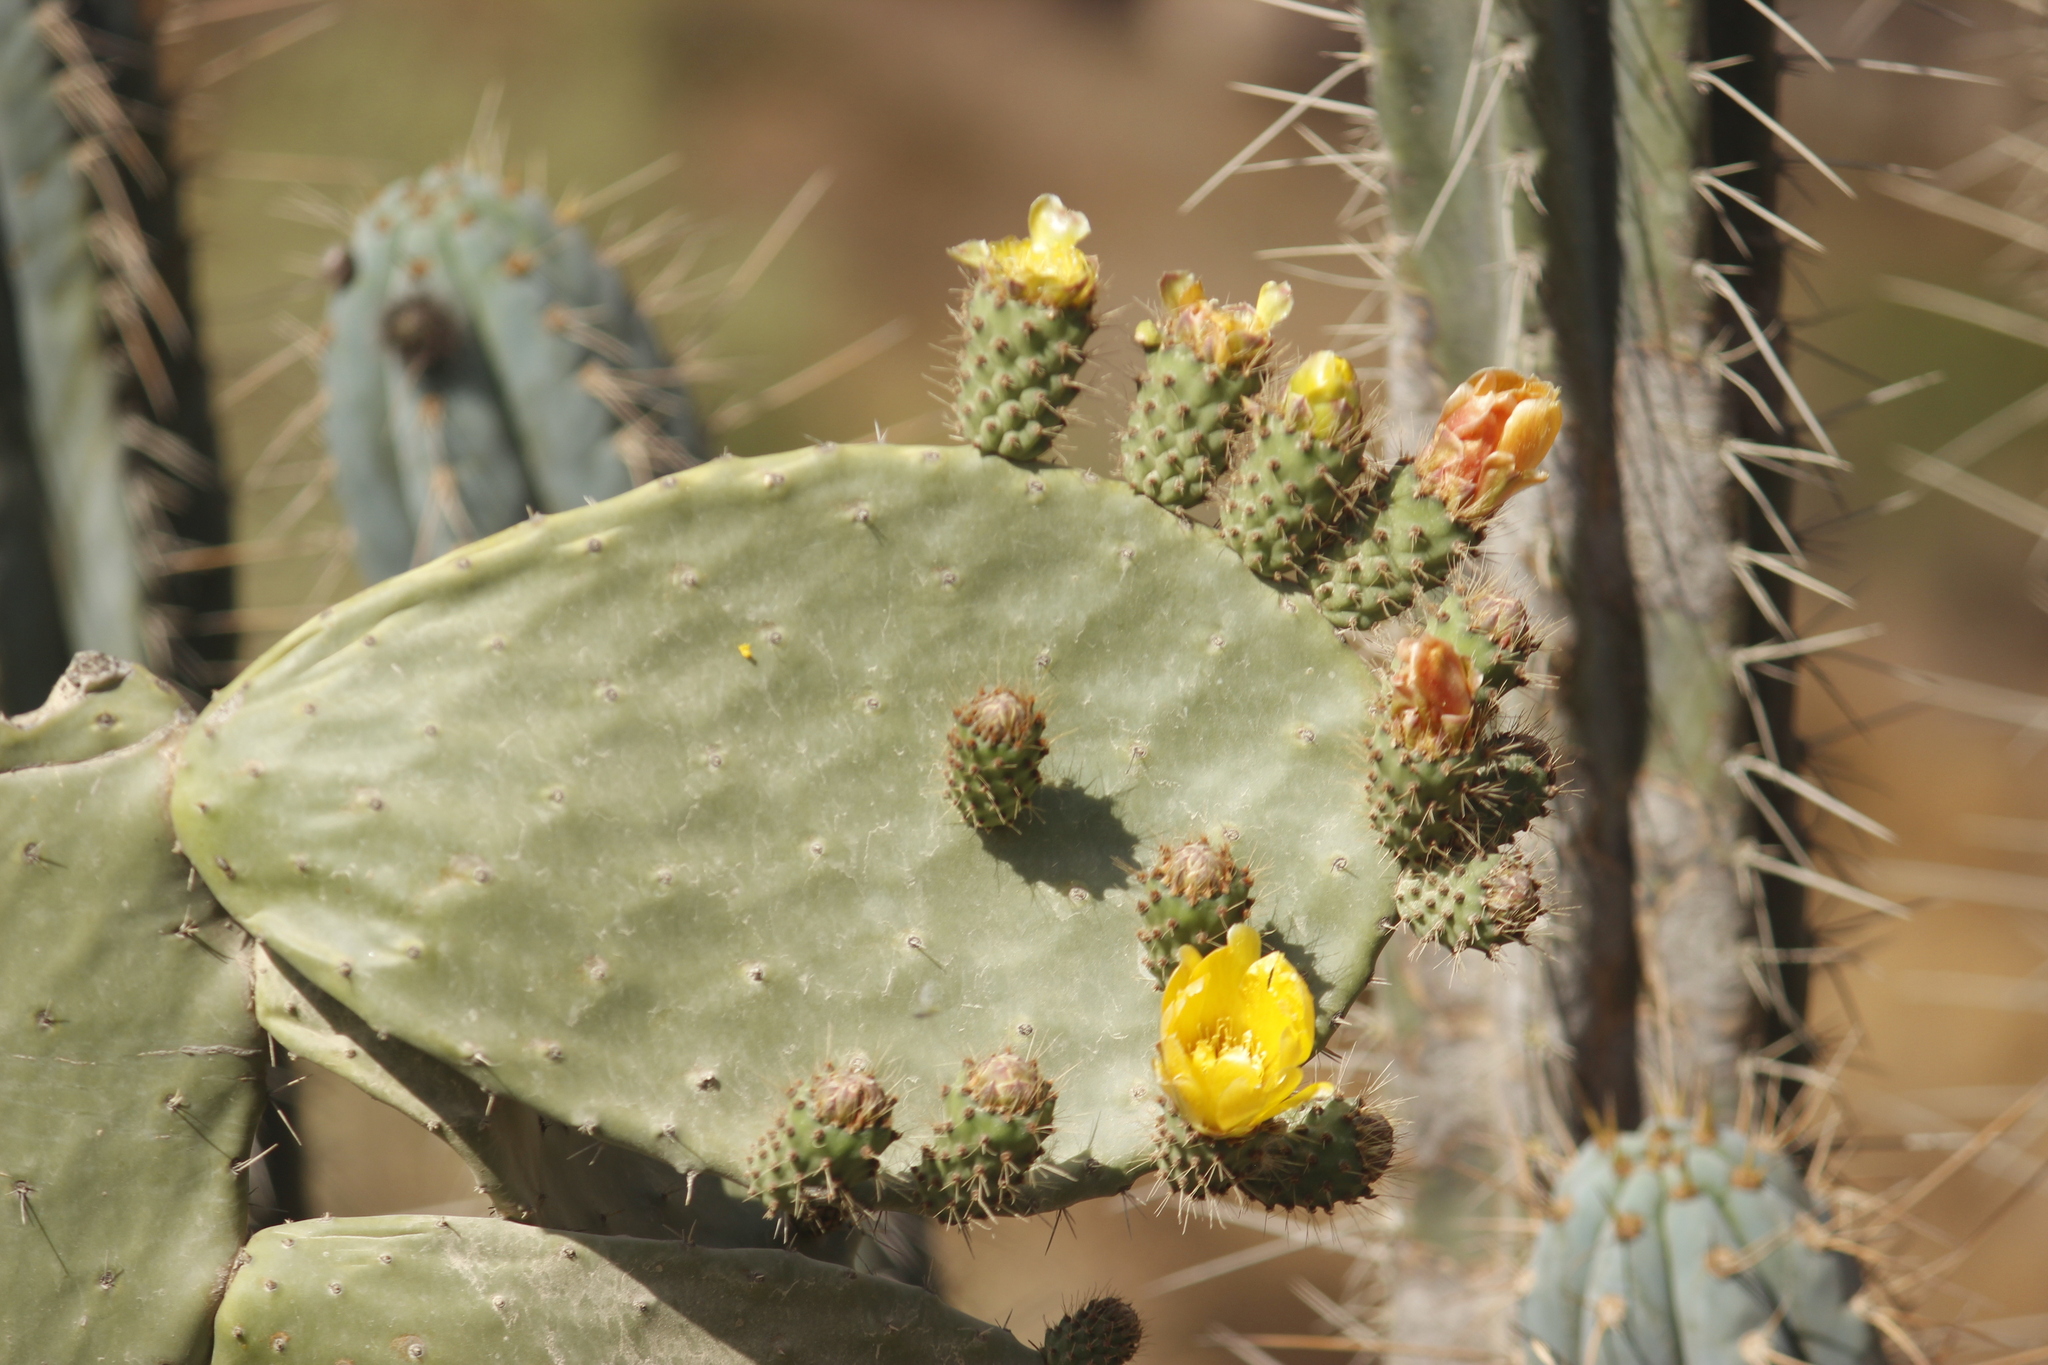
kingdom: Plantae
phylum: Tracheophyta
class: Magnoliopsida
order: Caryophyllales
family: Cactaceae
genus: Opuntia
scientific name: Opuntia ficus-indica
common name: Barbary fig
